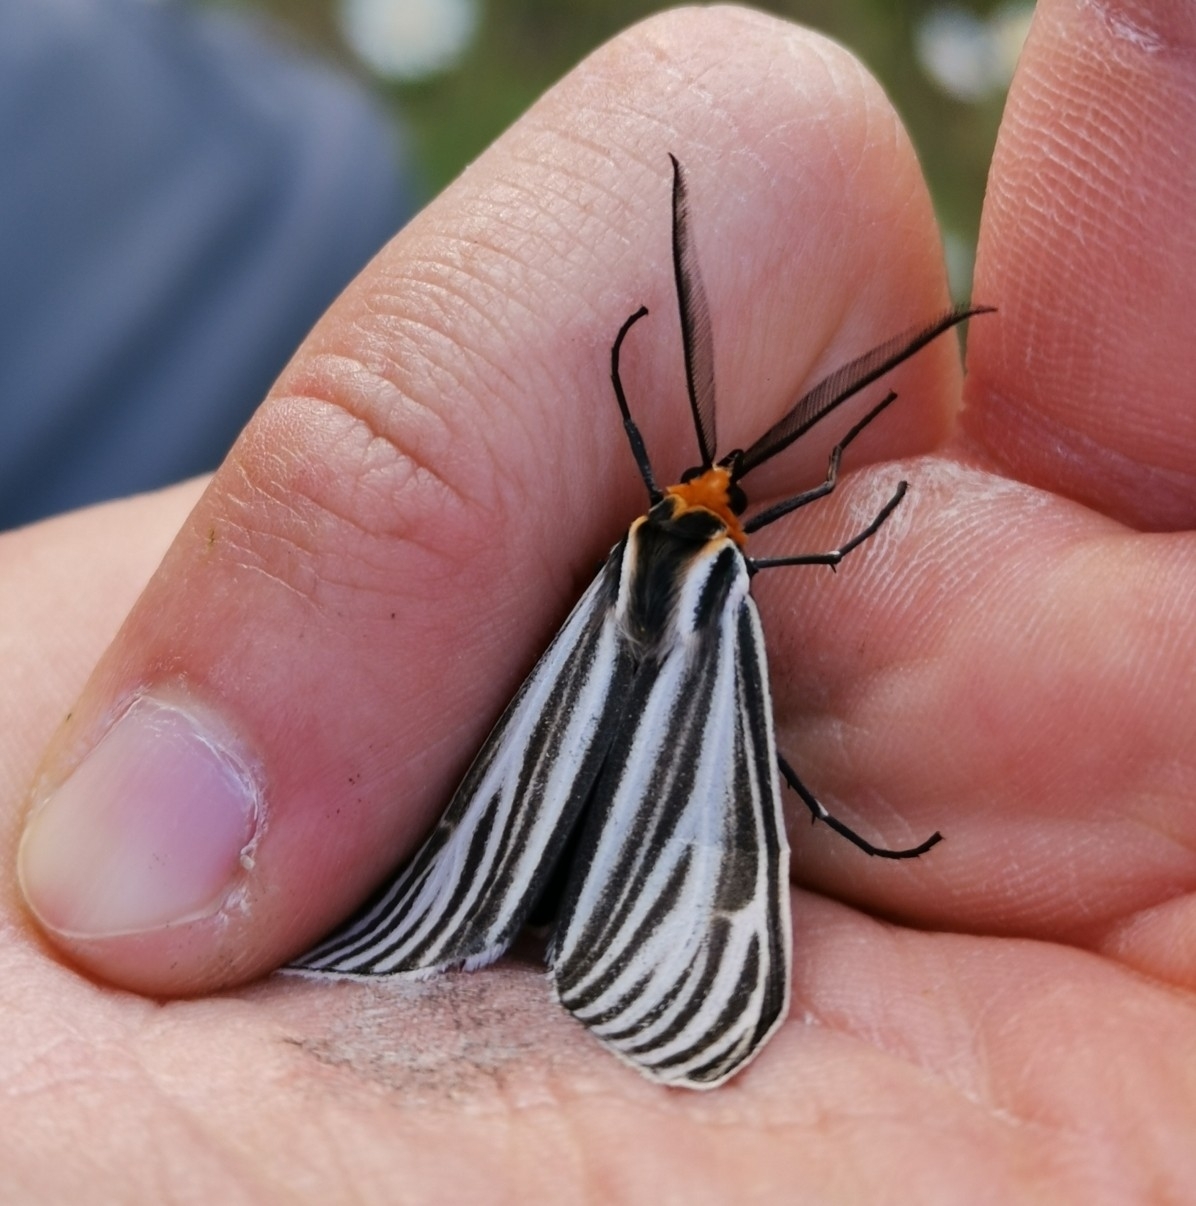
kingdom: Animalia
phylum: Arthropoda
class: Insecta
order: Lepidoptera
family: Erebidae
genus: Ctenucha
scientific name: Ctenucha vittigerum
